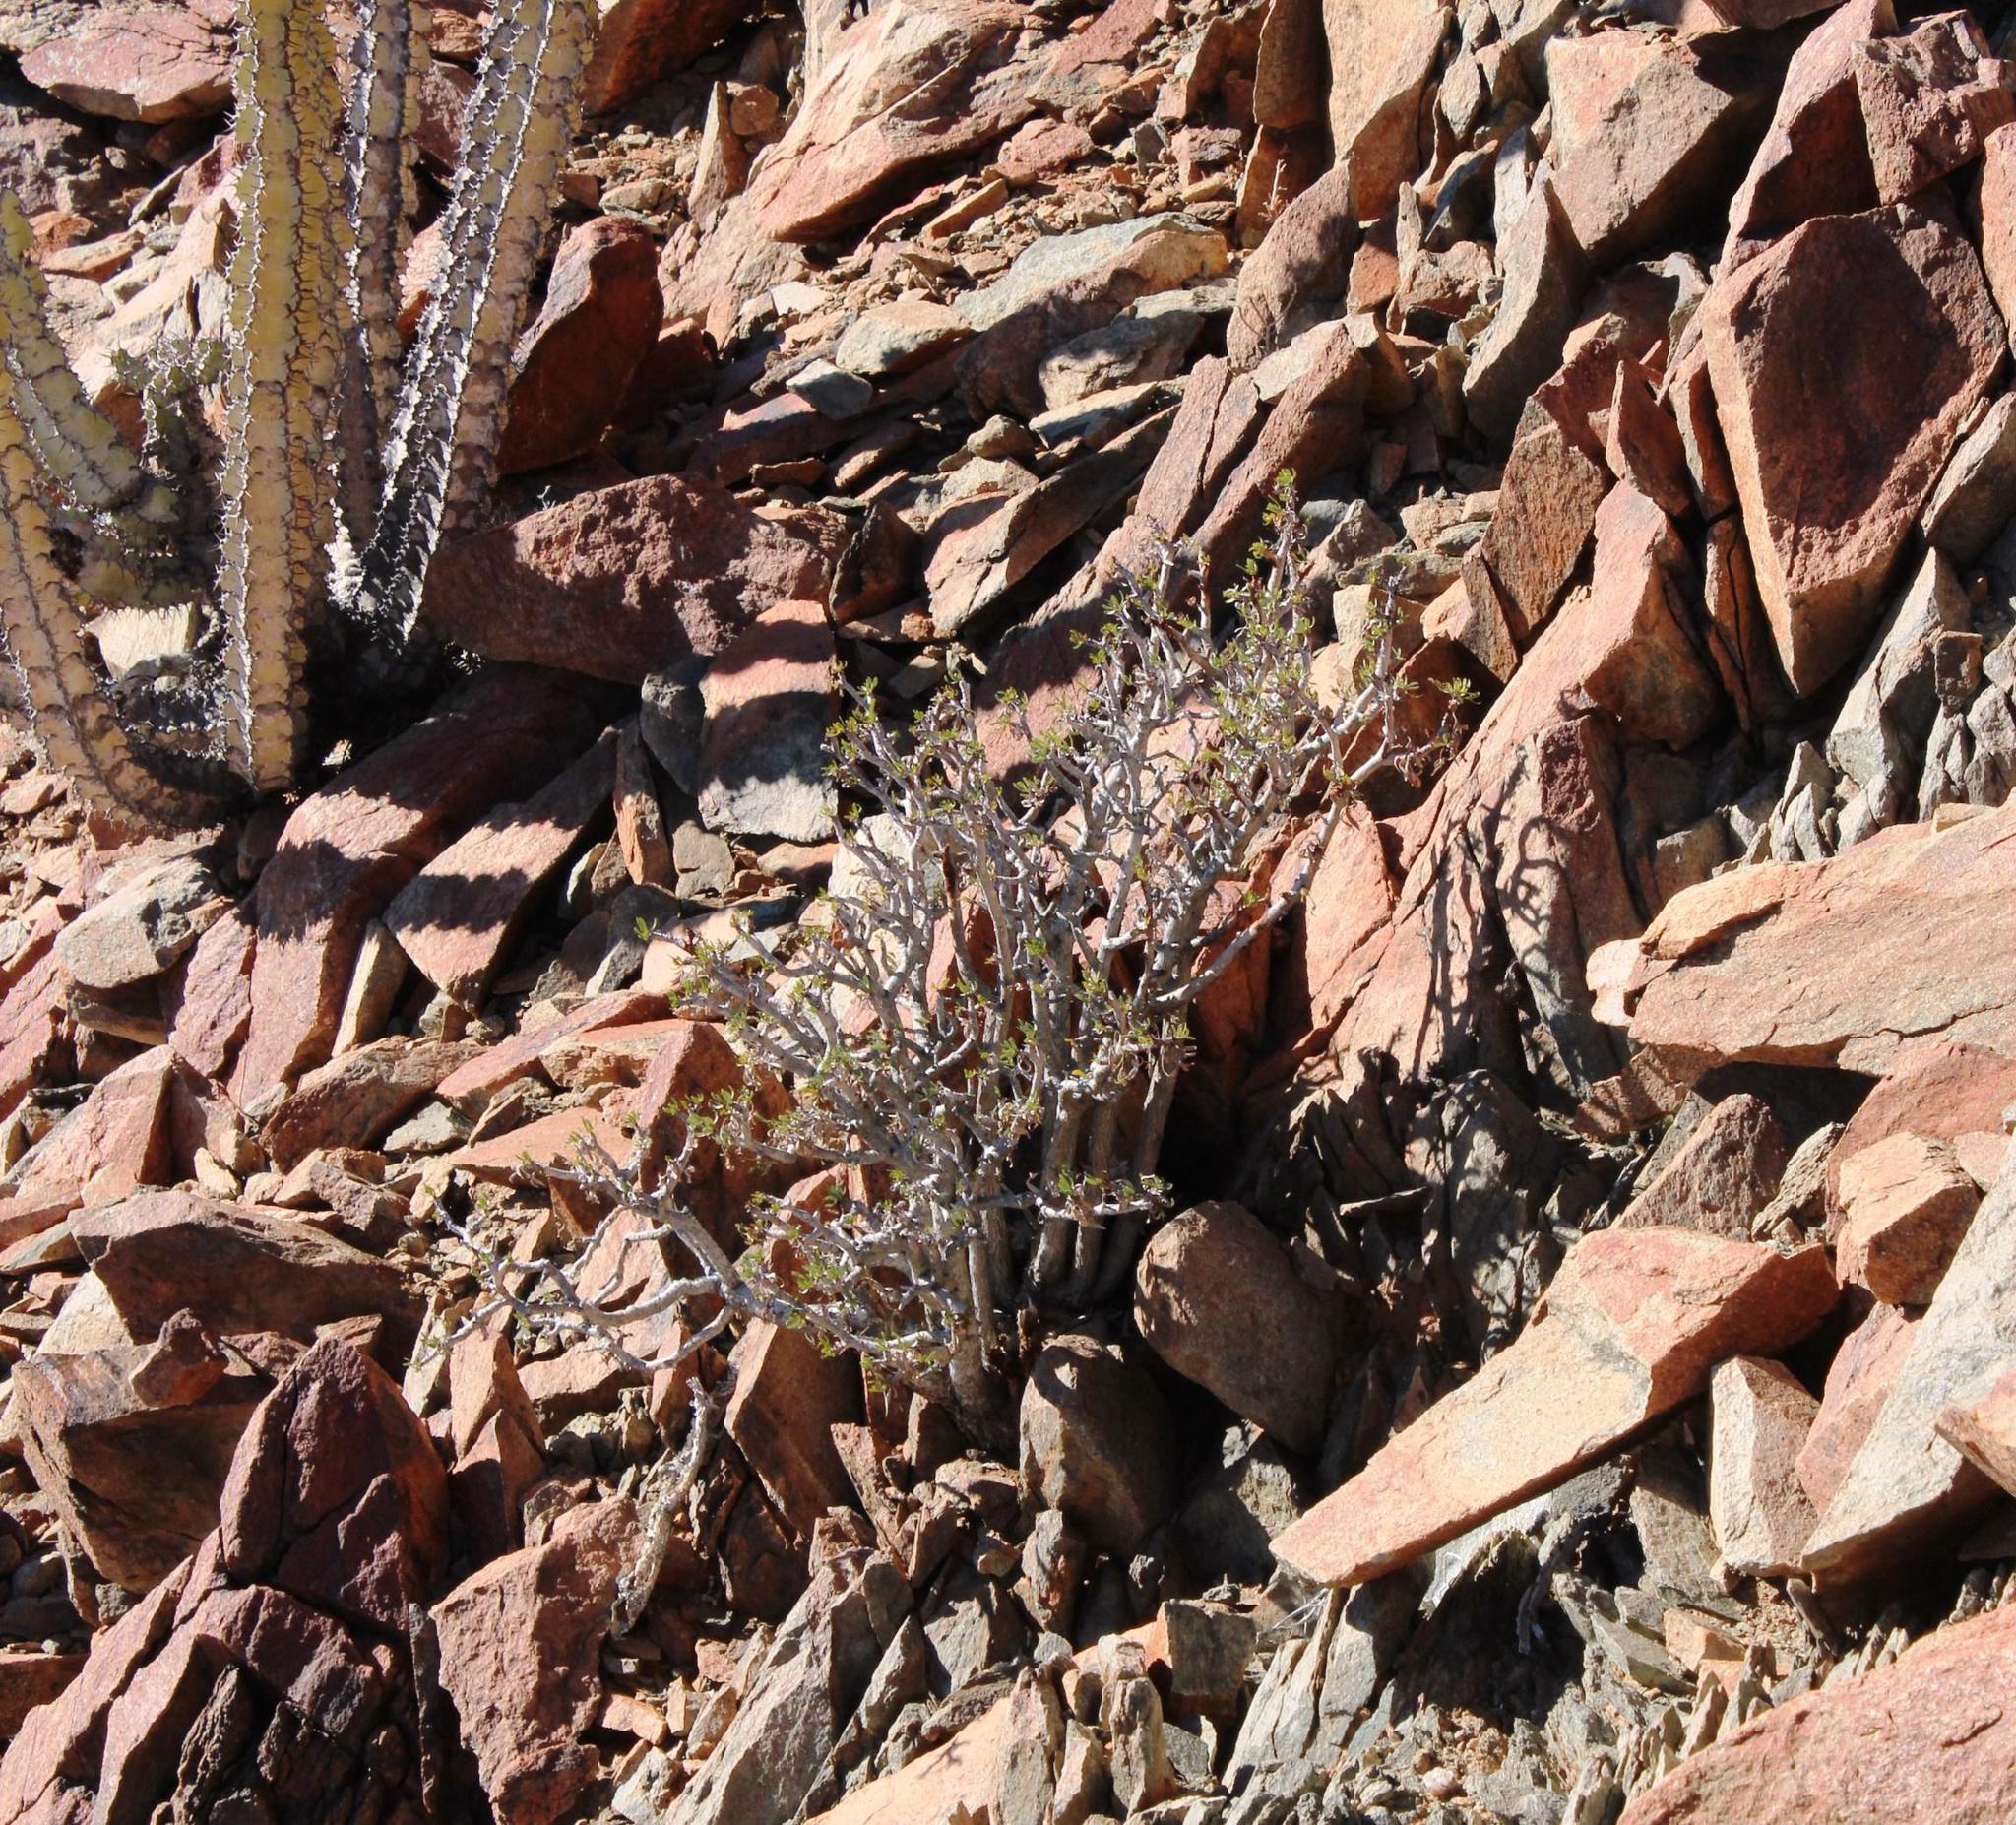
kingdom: Plantae
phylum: Tracheophyta
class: Magnoliopsida
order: Asterales
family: Asteraceae
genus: Othonna
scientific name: Othonna lasiocarpa
